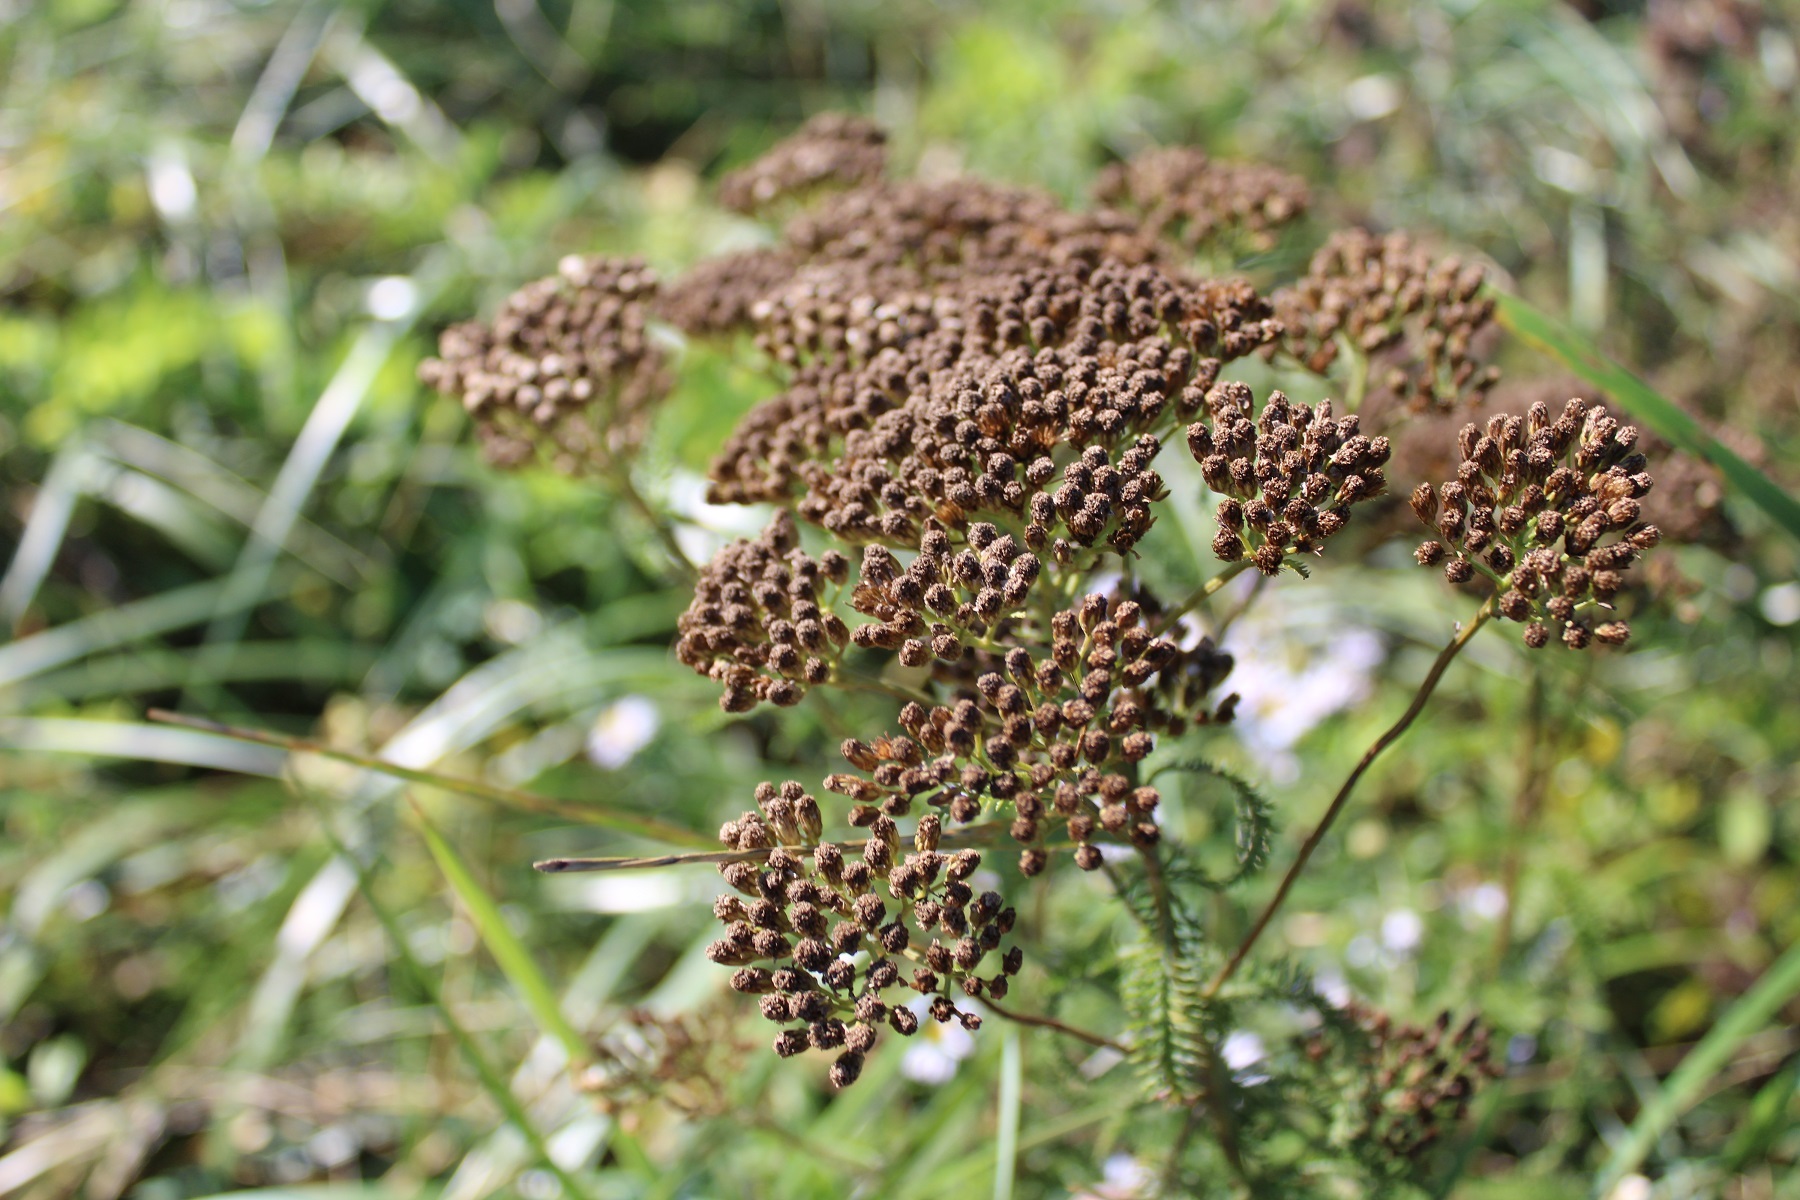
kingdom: Plantae
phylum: Tracheophyta
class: Magnoliopsida
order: Asterales
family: Asteraceae
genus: Achillea
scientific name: Achillea millefolium
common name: Yarrow
